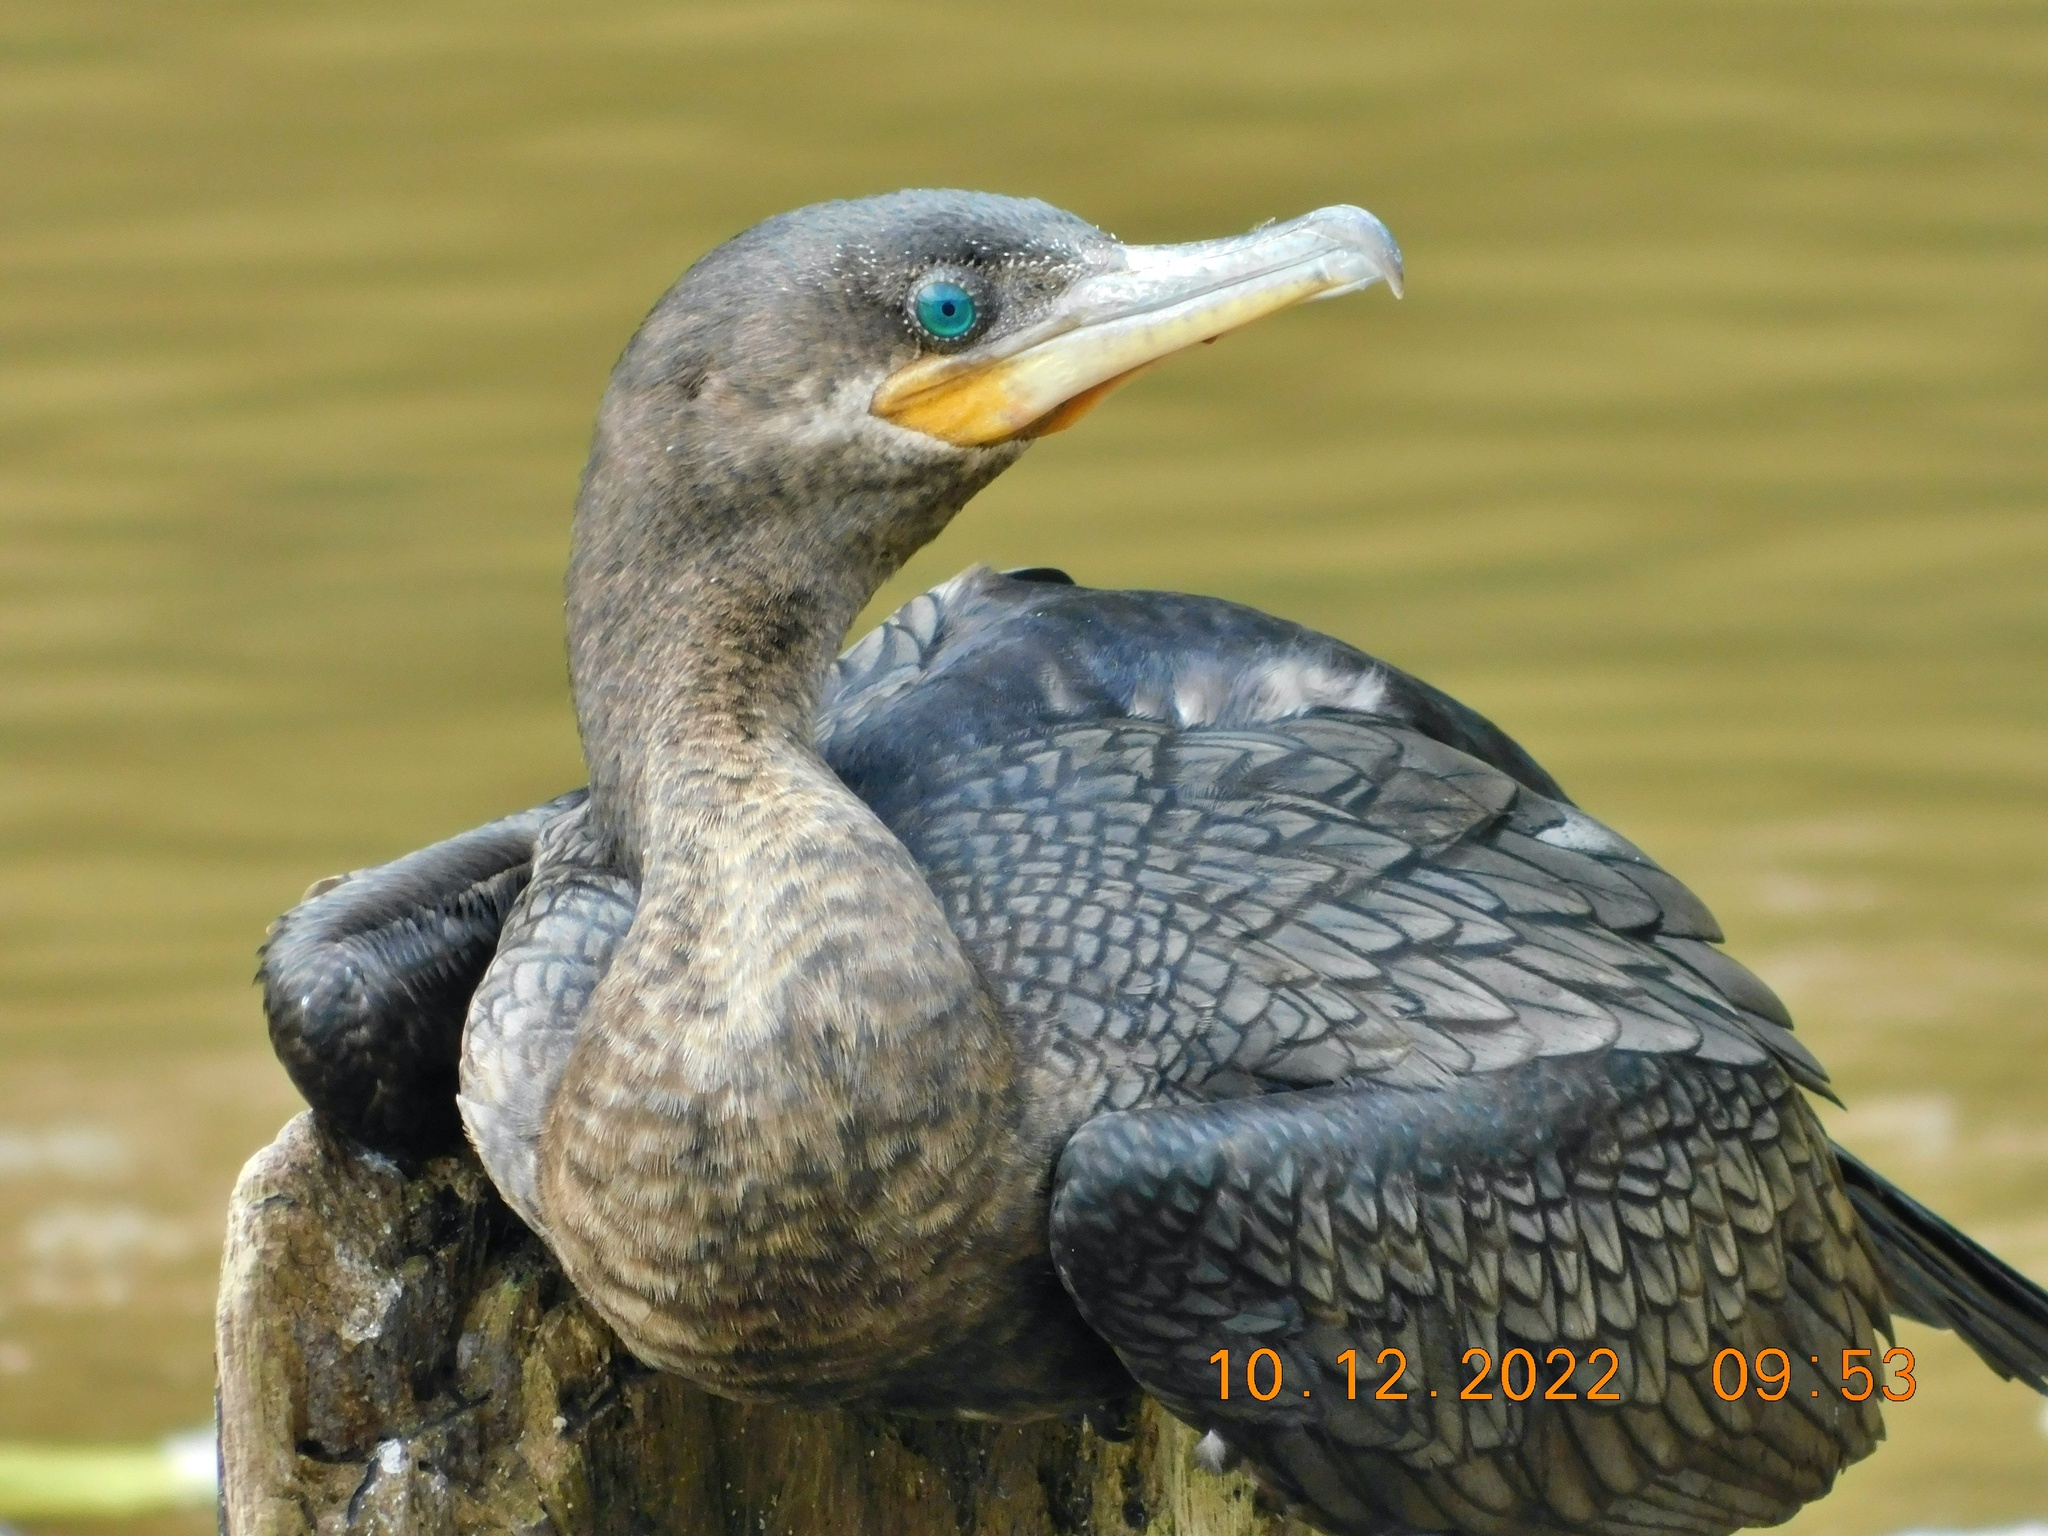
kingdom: Animalia
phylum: Chordata
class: Aves
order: Suliformes
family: Phalacrocoracidae
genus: Phalacrocorax
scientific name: Phalacrocorax brasilianus
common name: Neotropic cormorant
